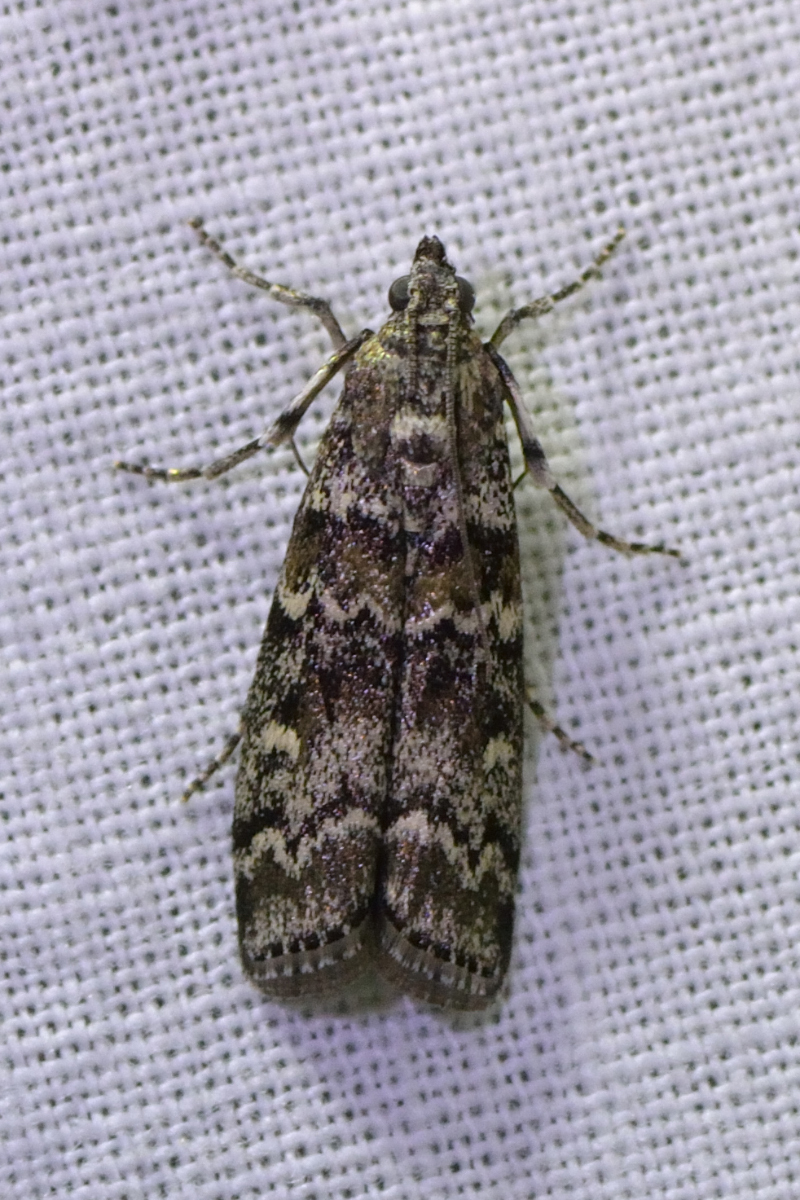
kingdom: Animalia
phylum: Arthropoda
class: Insecta
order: Lepidoptera
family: Pyralidae
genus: Dioryctria
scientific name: Dioryctria abietella
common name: Dark pine knot-horn
